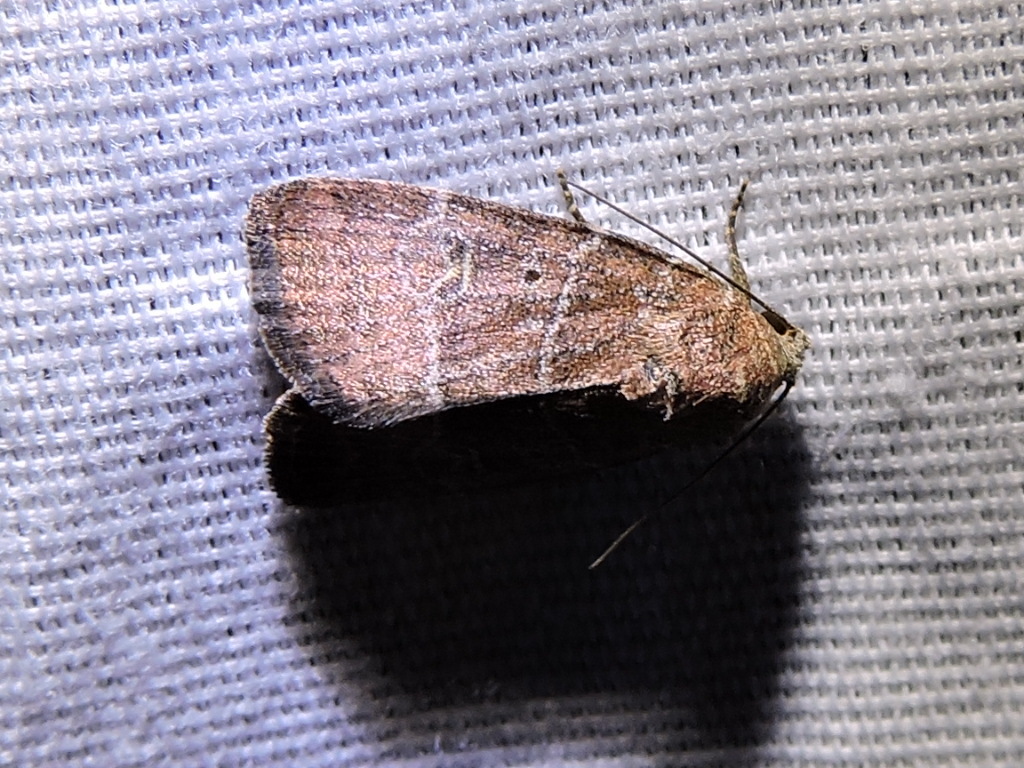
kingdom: Animalia
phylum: Arthropoda
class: Insecta
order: Lepidoptera
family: Noctuidae
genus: Elaphria
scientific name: Elaphria grata
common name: Grateful midget moth
